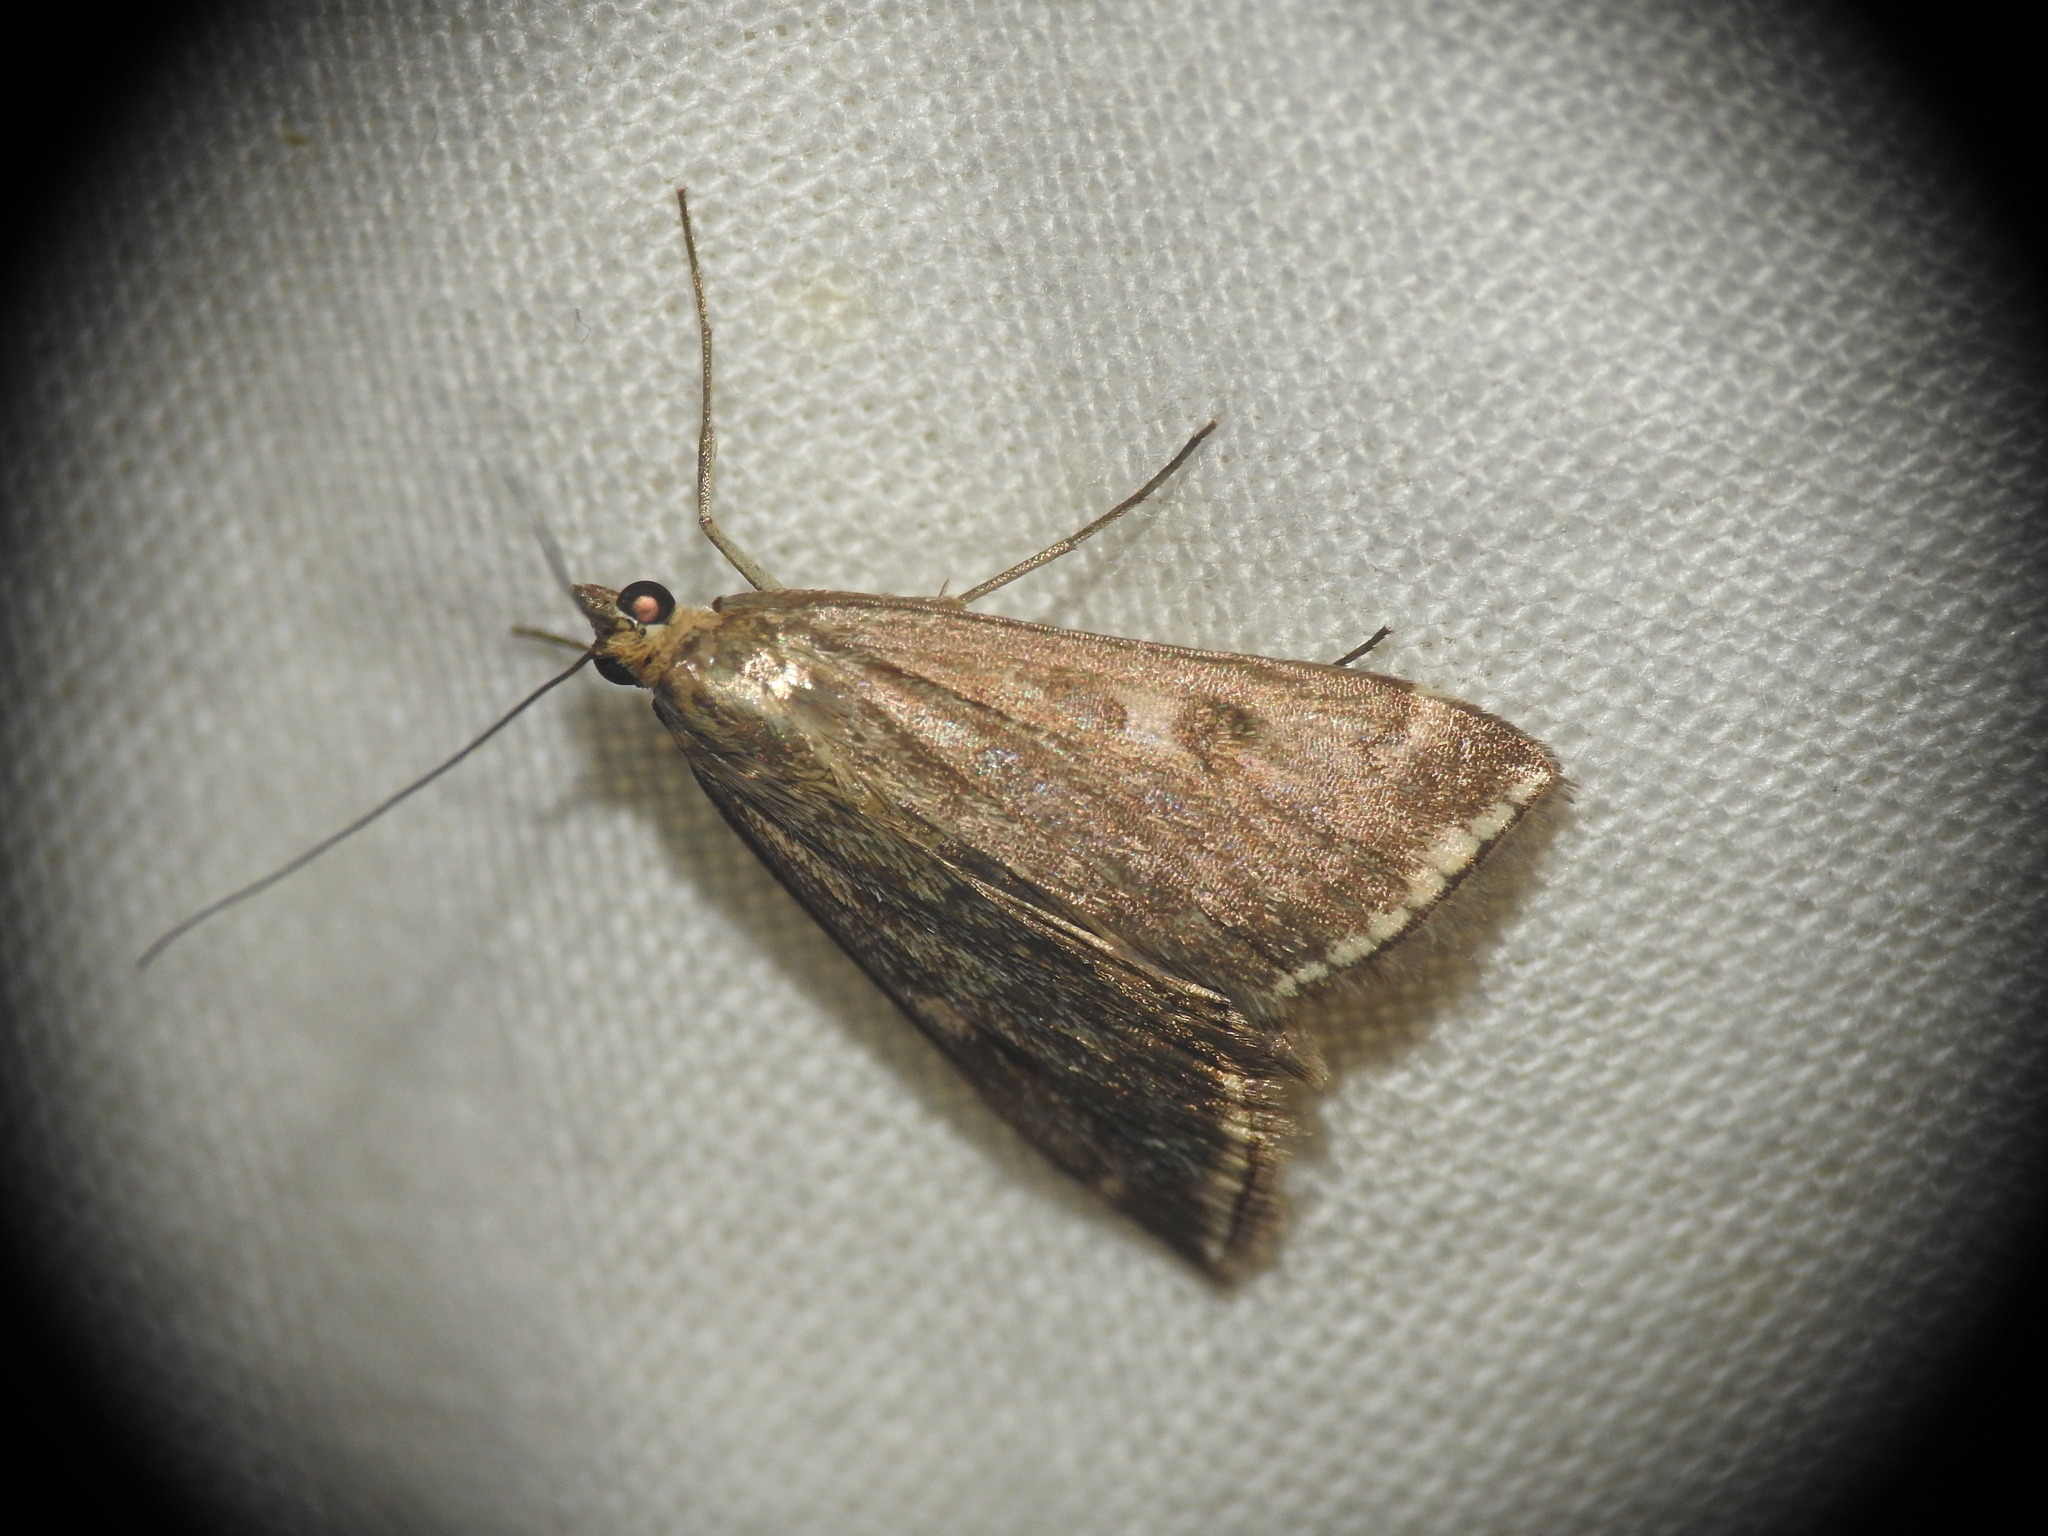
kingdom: Animalia
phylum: Arthropoda
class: Insecta
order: Lepidoptera
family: Crambidae
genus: Loxostege
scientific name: Loxostege sticticalis
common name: Crambid moth
